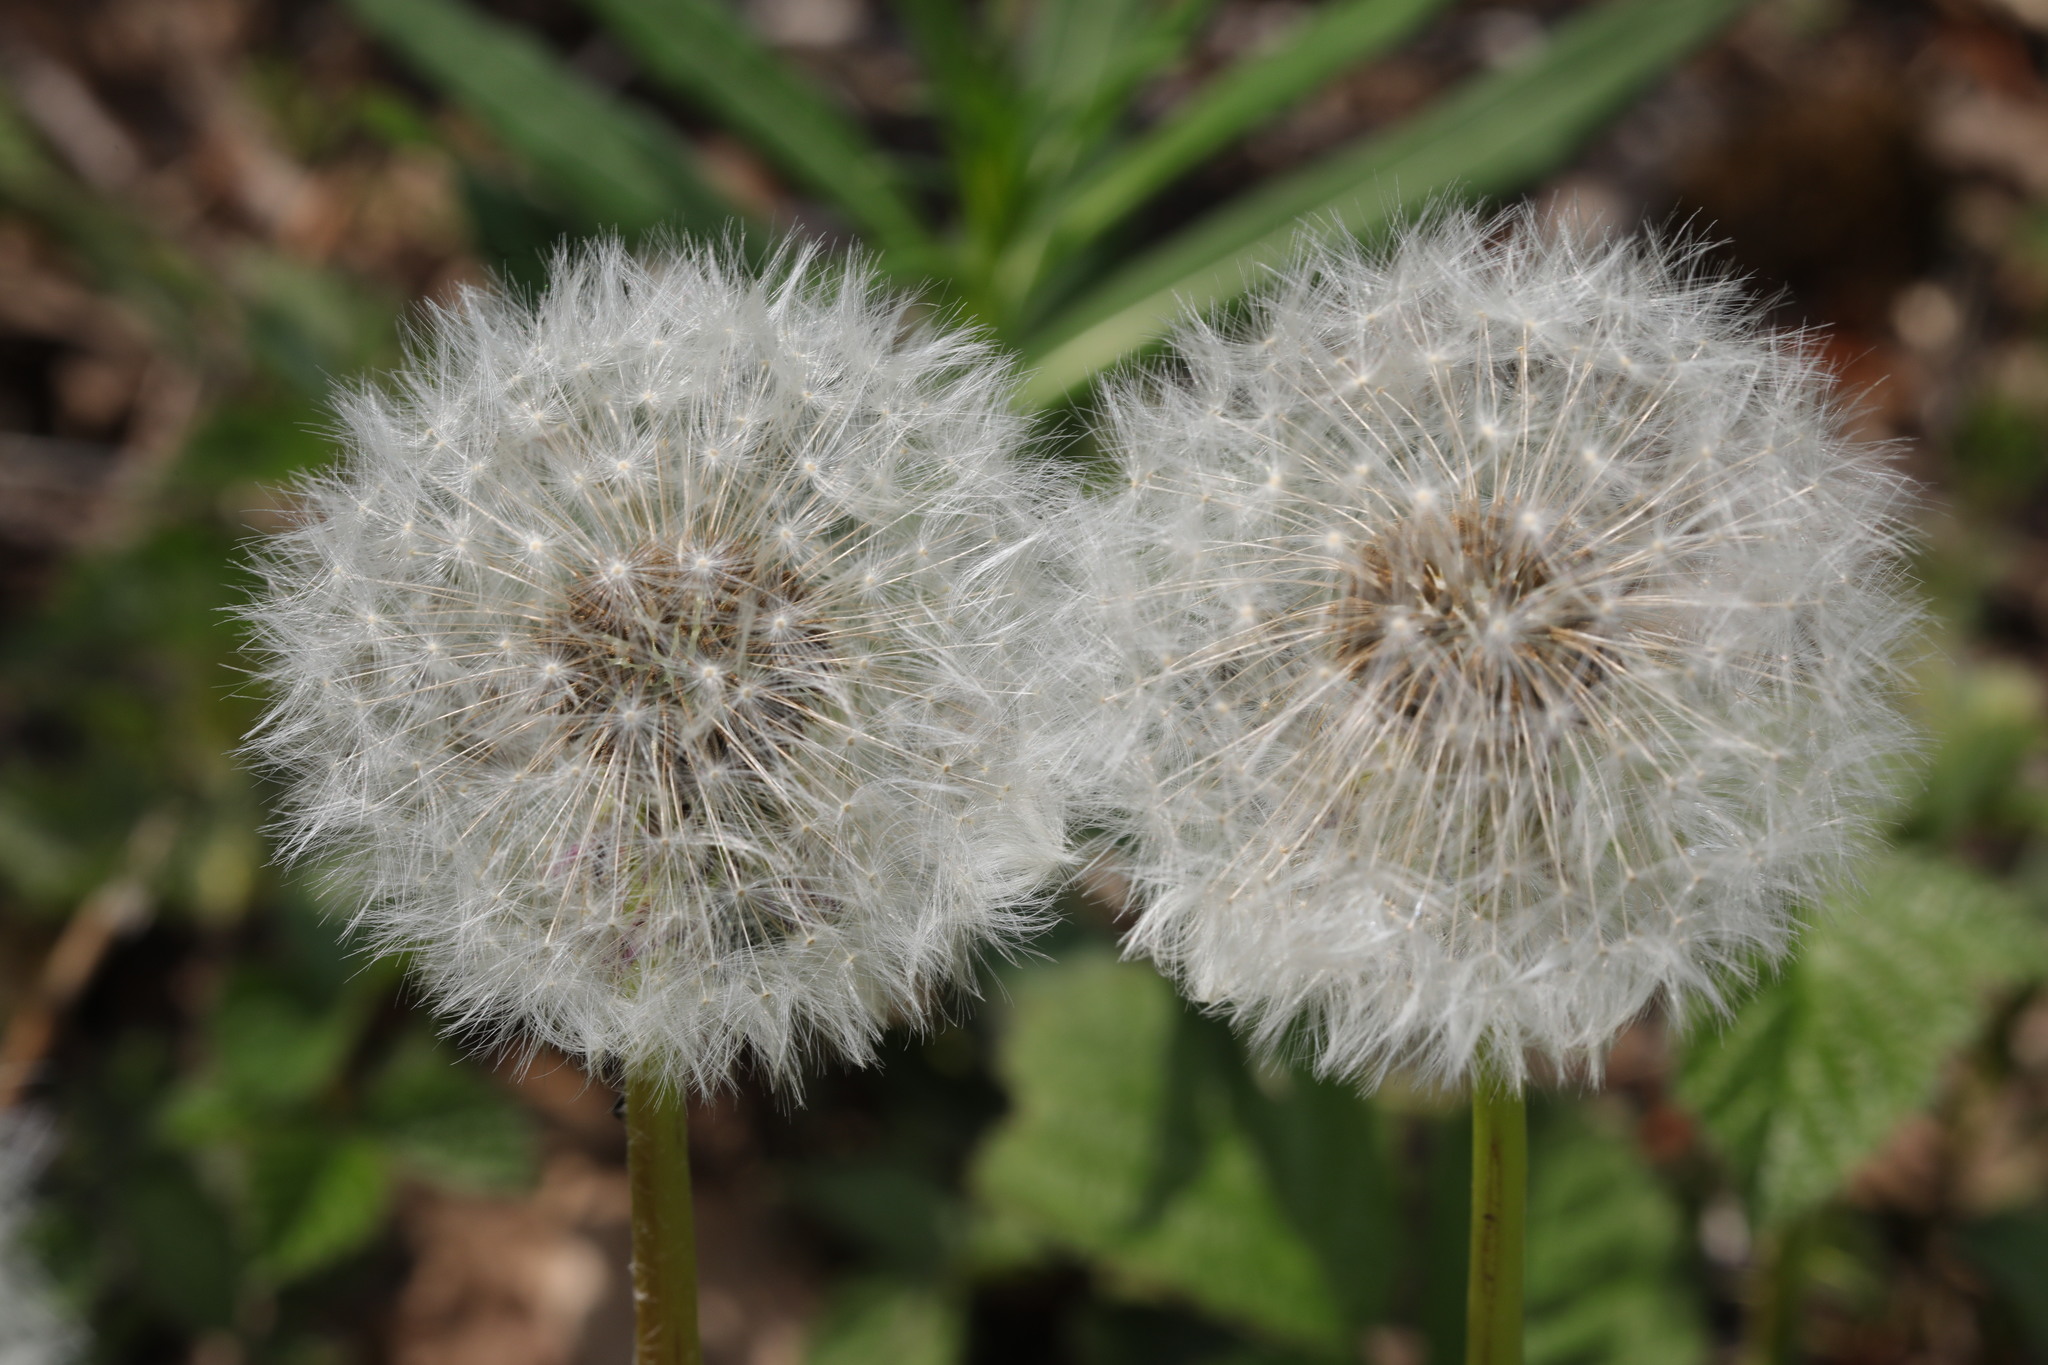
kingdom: Plantae
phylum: Tracheophyta
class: Magnoliopsida
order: Asterales
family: Asteraceae
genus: Taraxacum
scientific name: Taraxacum officinale
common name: Common dandelion
